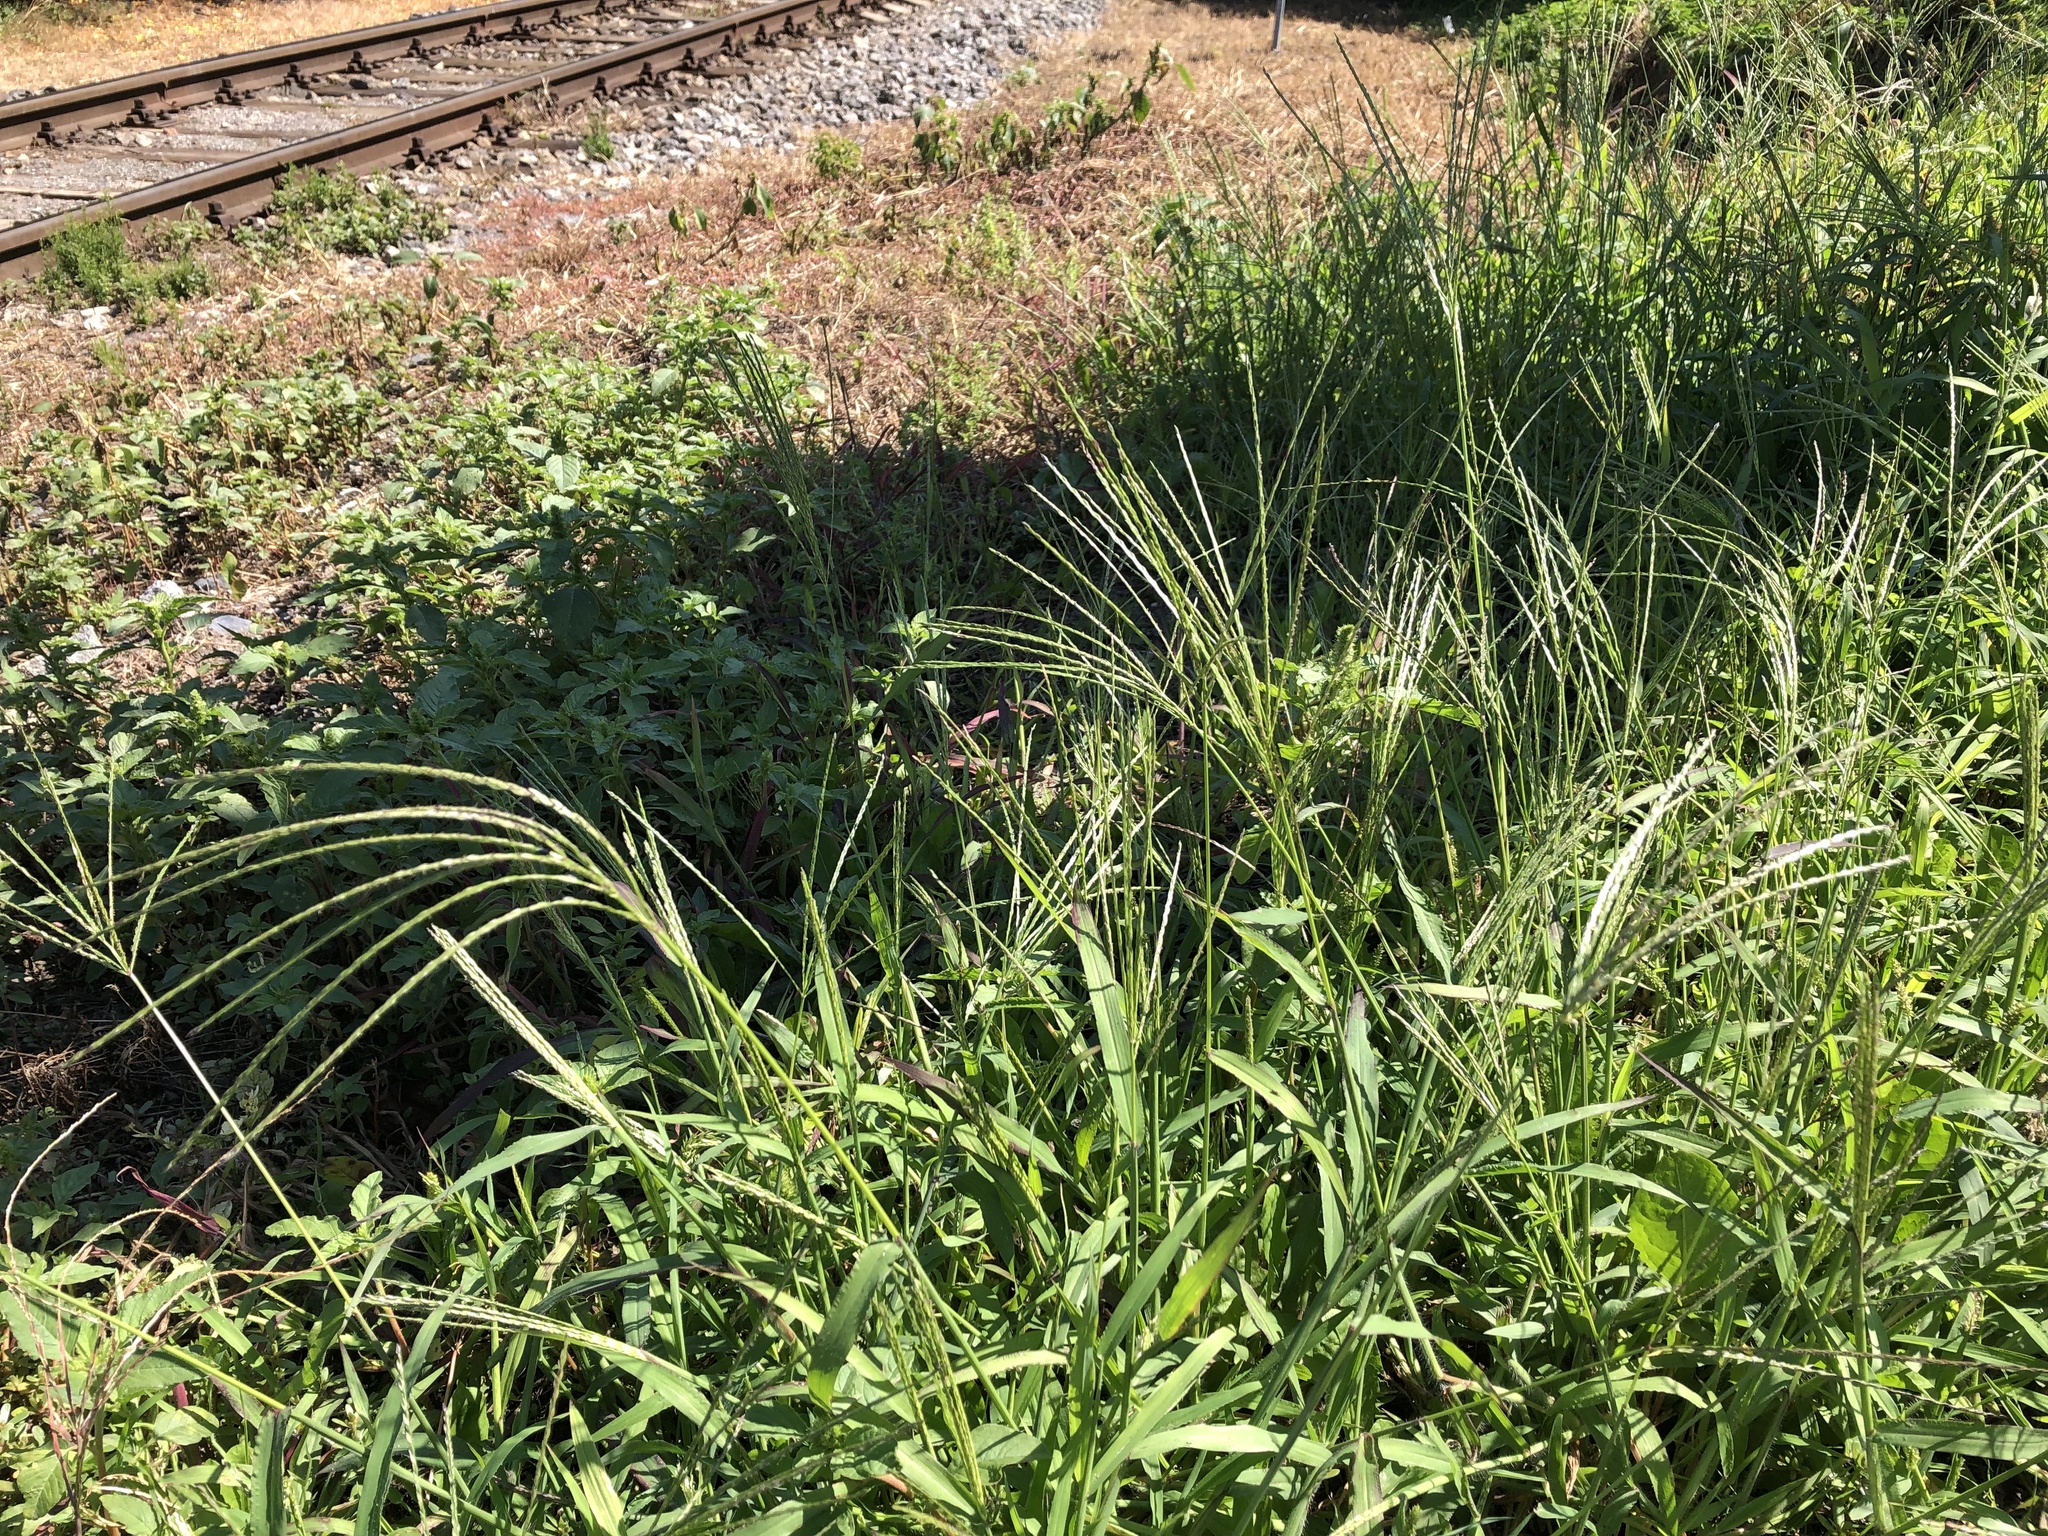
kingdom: Plantae
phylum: Tracheophyta
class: Liliopsida
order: Poales
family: Poaceae
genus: Digitaria
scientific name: Digitaria sanguinalis
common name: Hairy crabgrass
